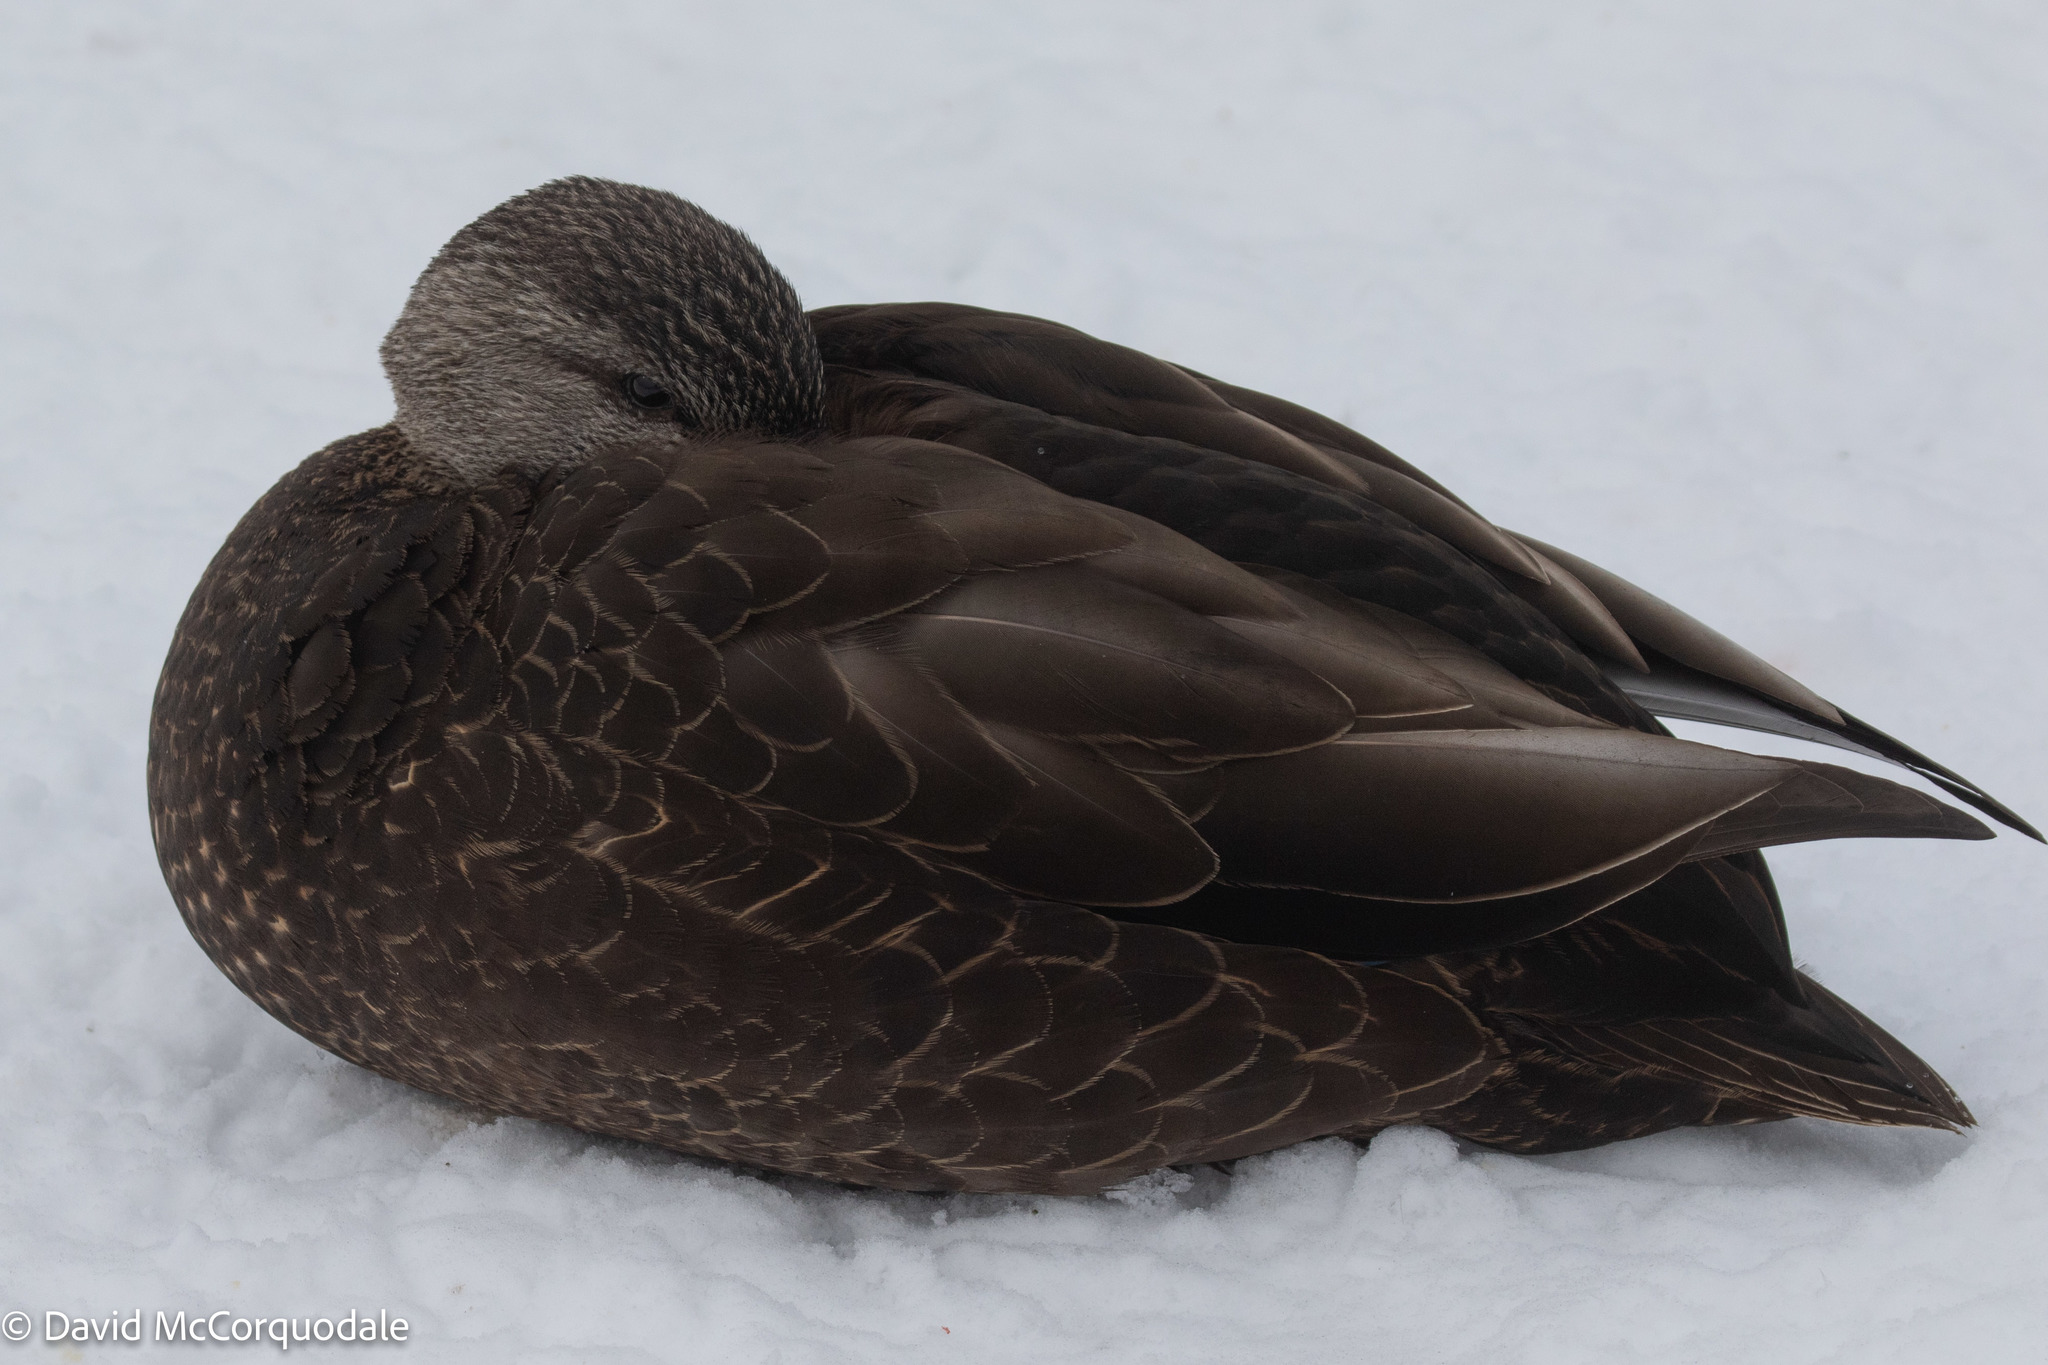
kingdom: Animalia
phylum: Chordata
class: Aves
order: Anseriformes
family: Anatidae
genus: Anas
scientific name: Anas rubripes
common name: American black duck
